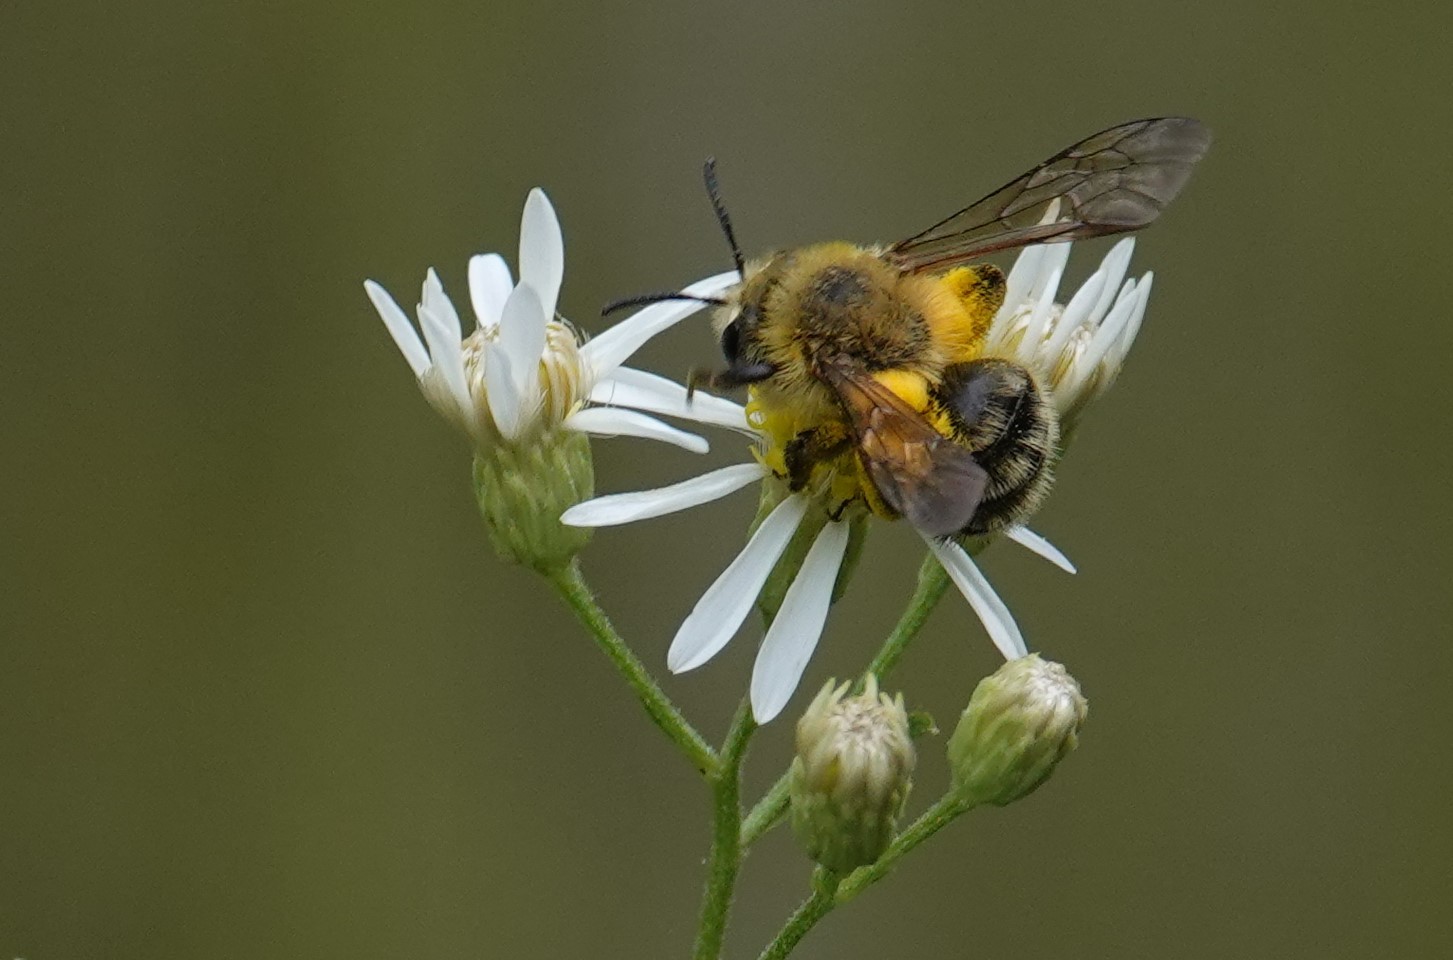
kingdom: Animalia
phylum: Arthropoda
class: Insecta
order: Hymenoptera
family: Andrenidae
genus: Andrena
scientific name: Andrena hirticincta
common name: Hairy-banded mining bee
